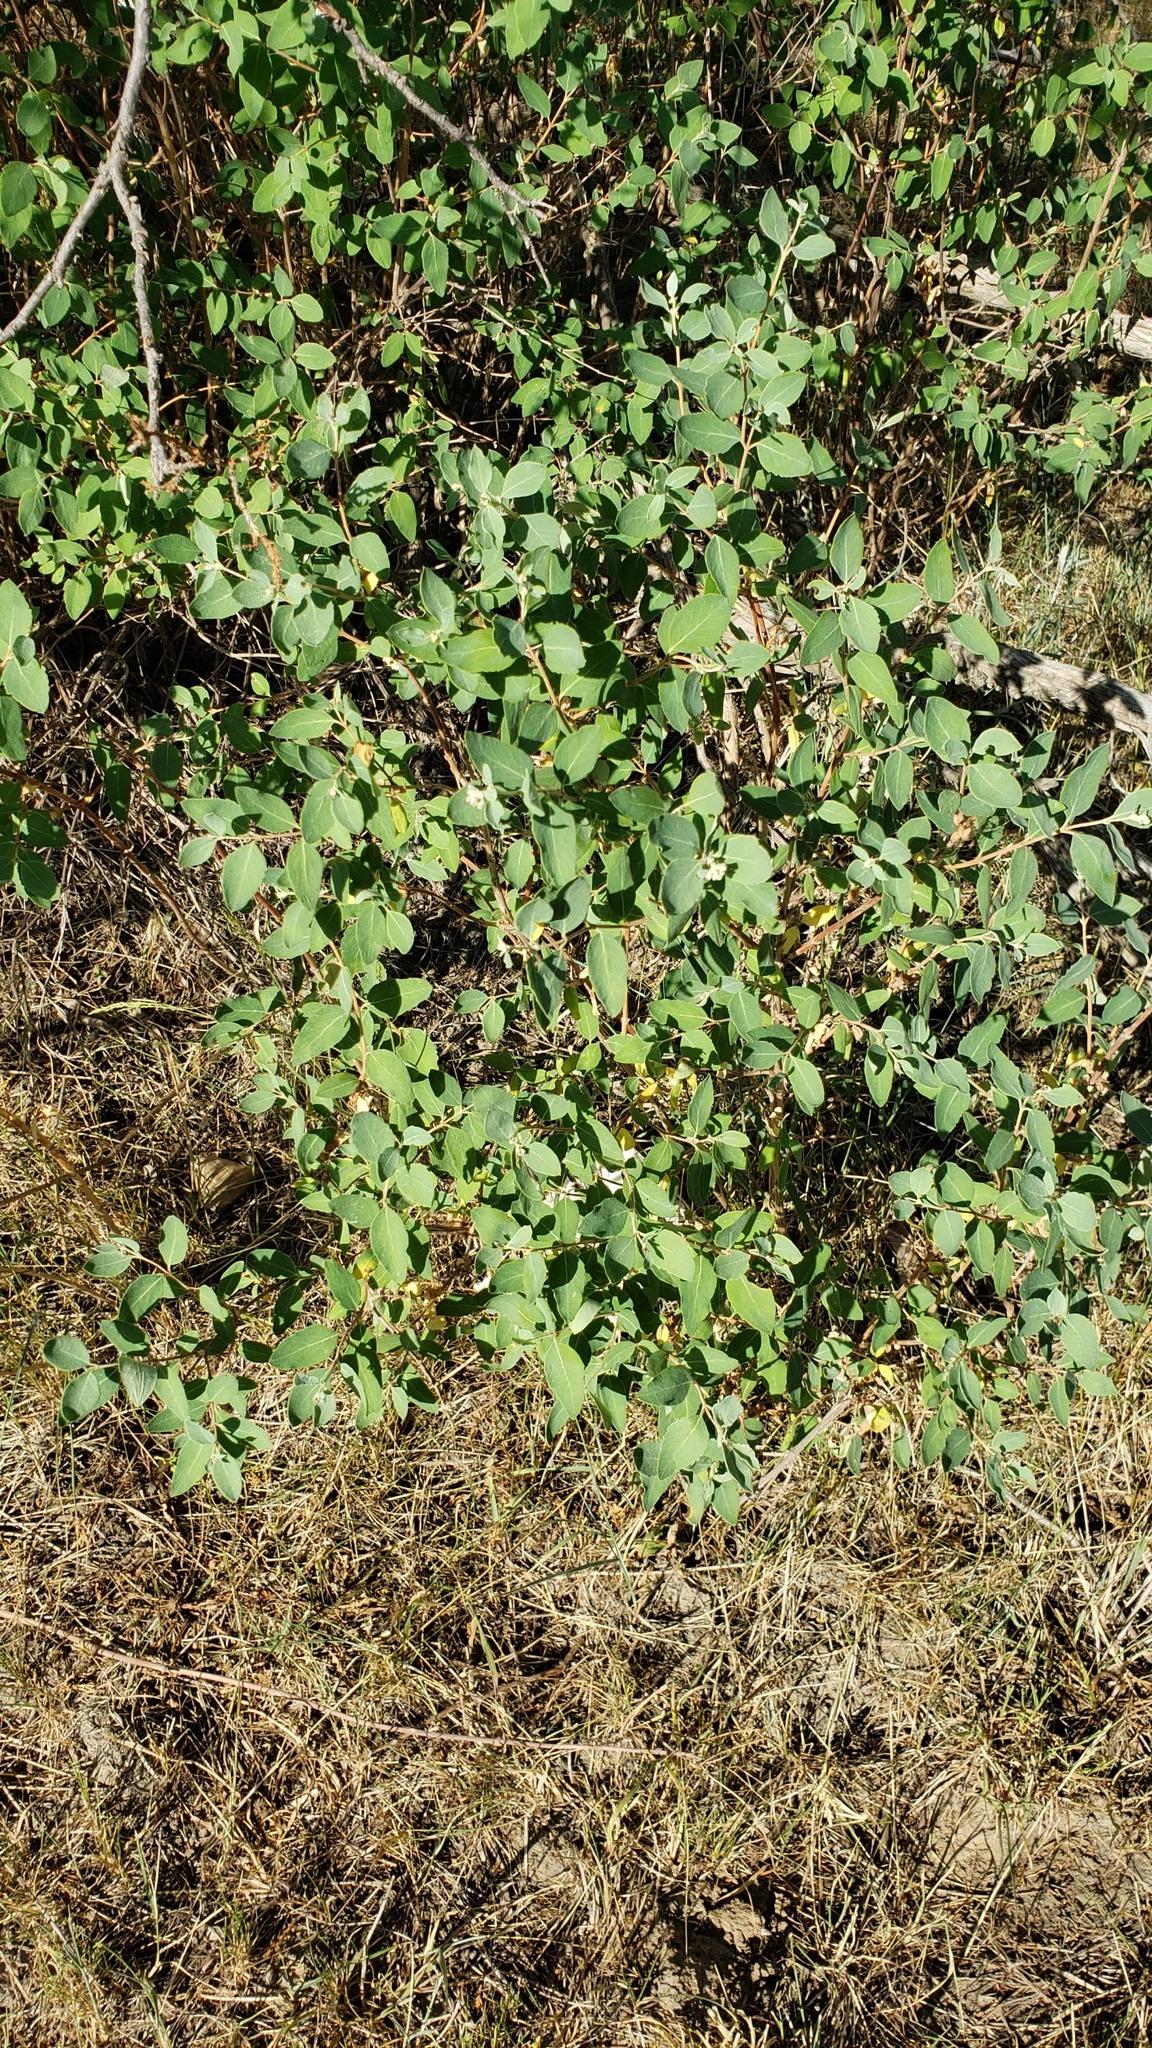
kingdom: Plantae
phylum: Tracheophyta
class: Magnoliopsida
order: Dipsacales
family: Caprifoliaceae
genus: Symphoricarpos
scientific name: Symphoricarpos occidentalis
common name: Wolfberry
